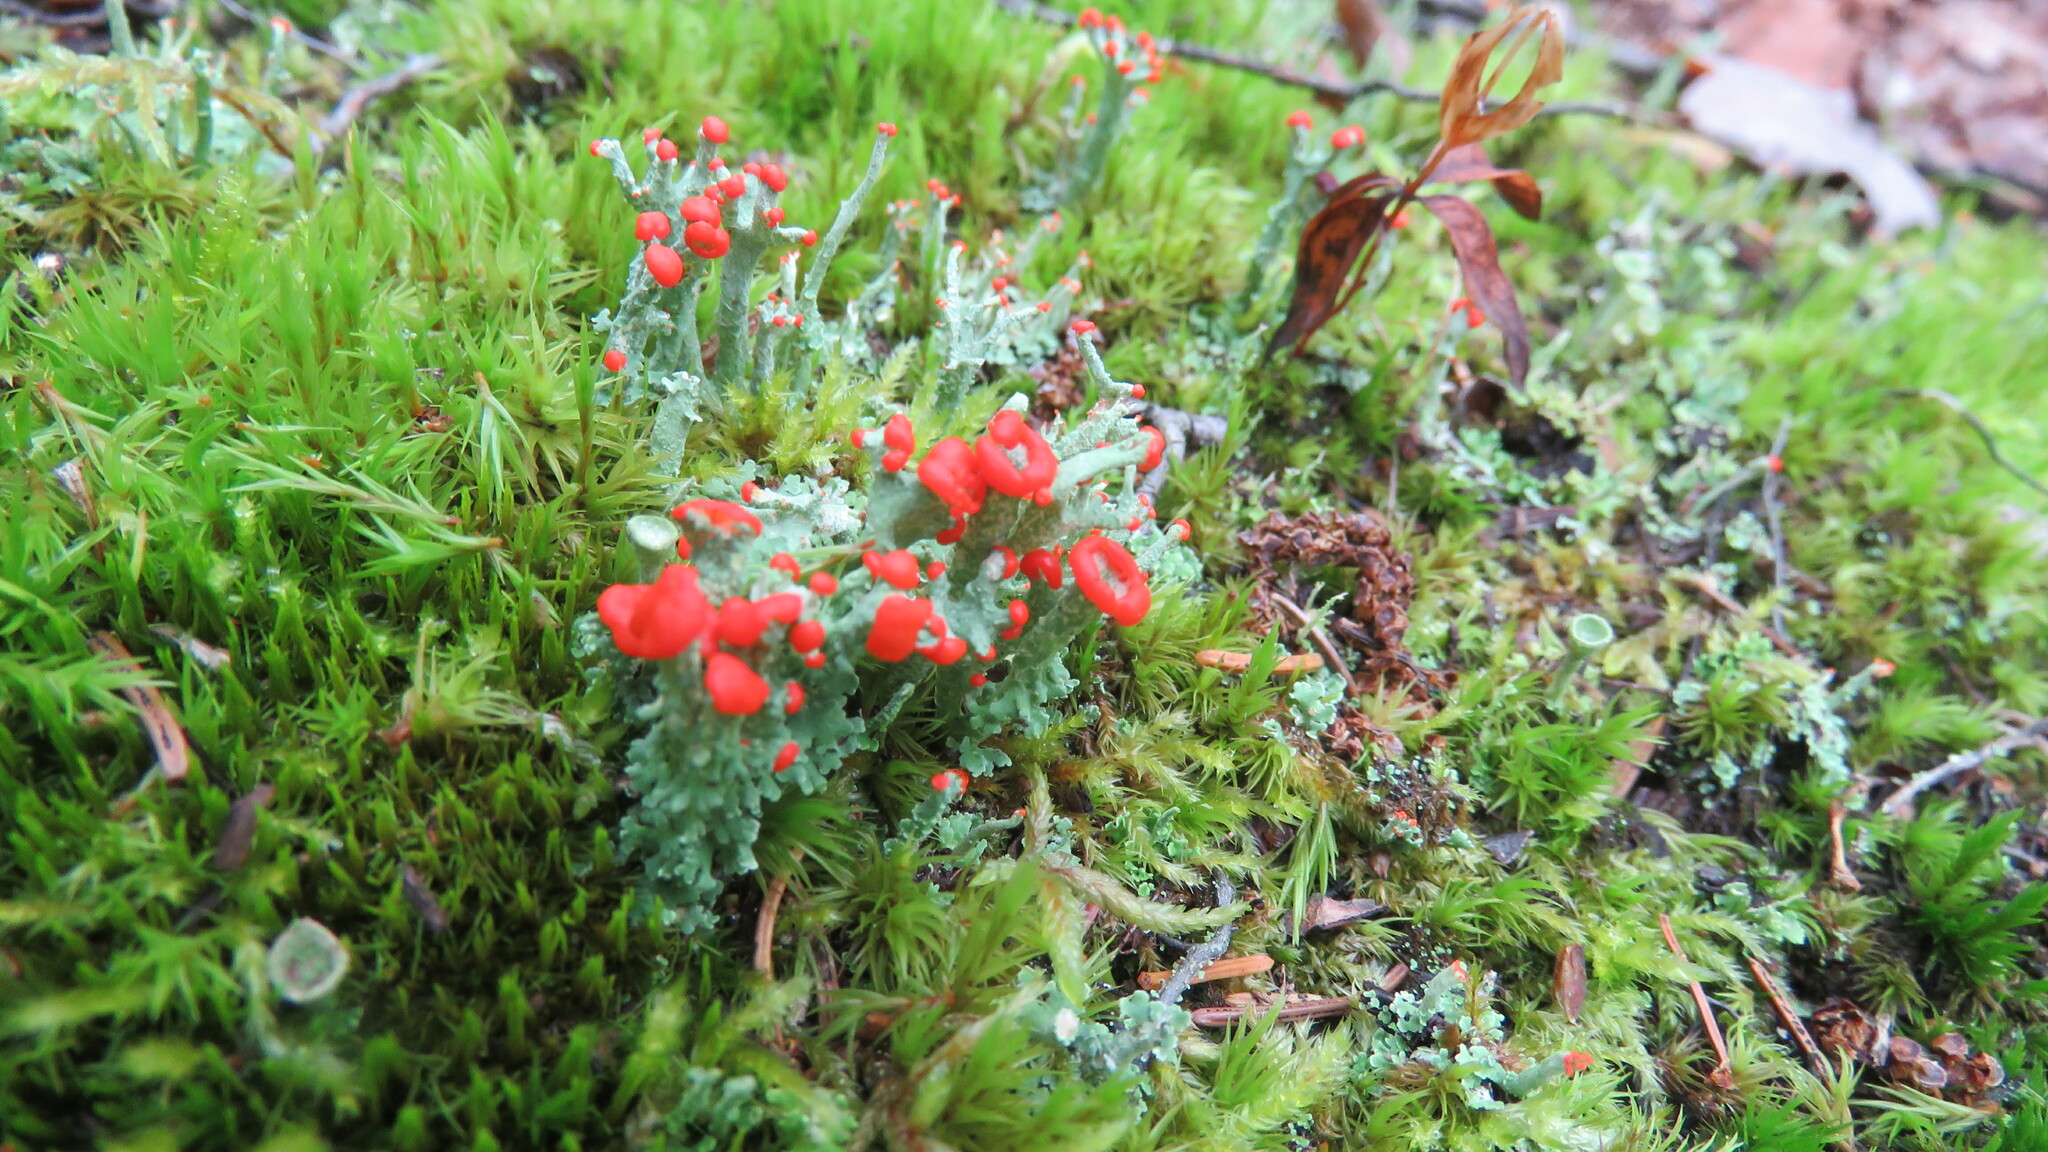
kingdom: Fungi
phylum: Ascomycota
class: Lecanoromycetes
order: Lecanorales
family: Cladoniaceae
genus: Cladonia
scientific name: Cladonia cristatella
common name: British soldier lichen
